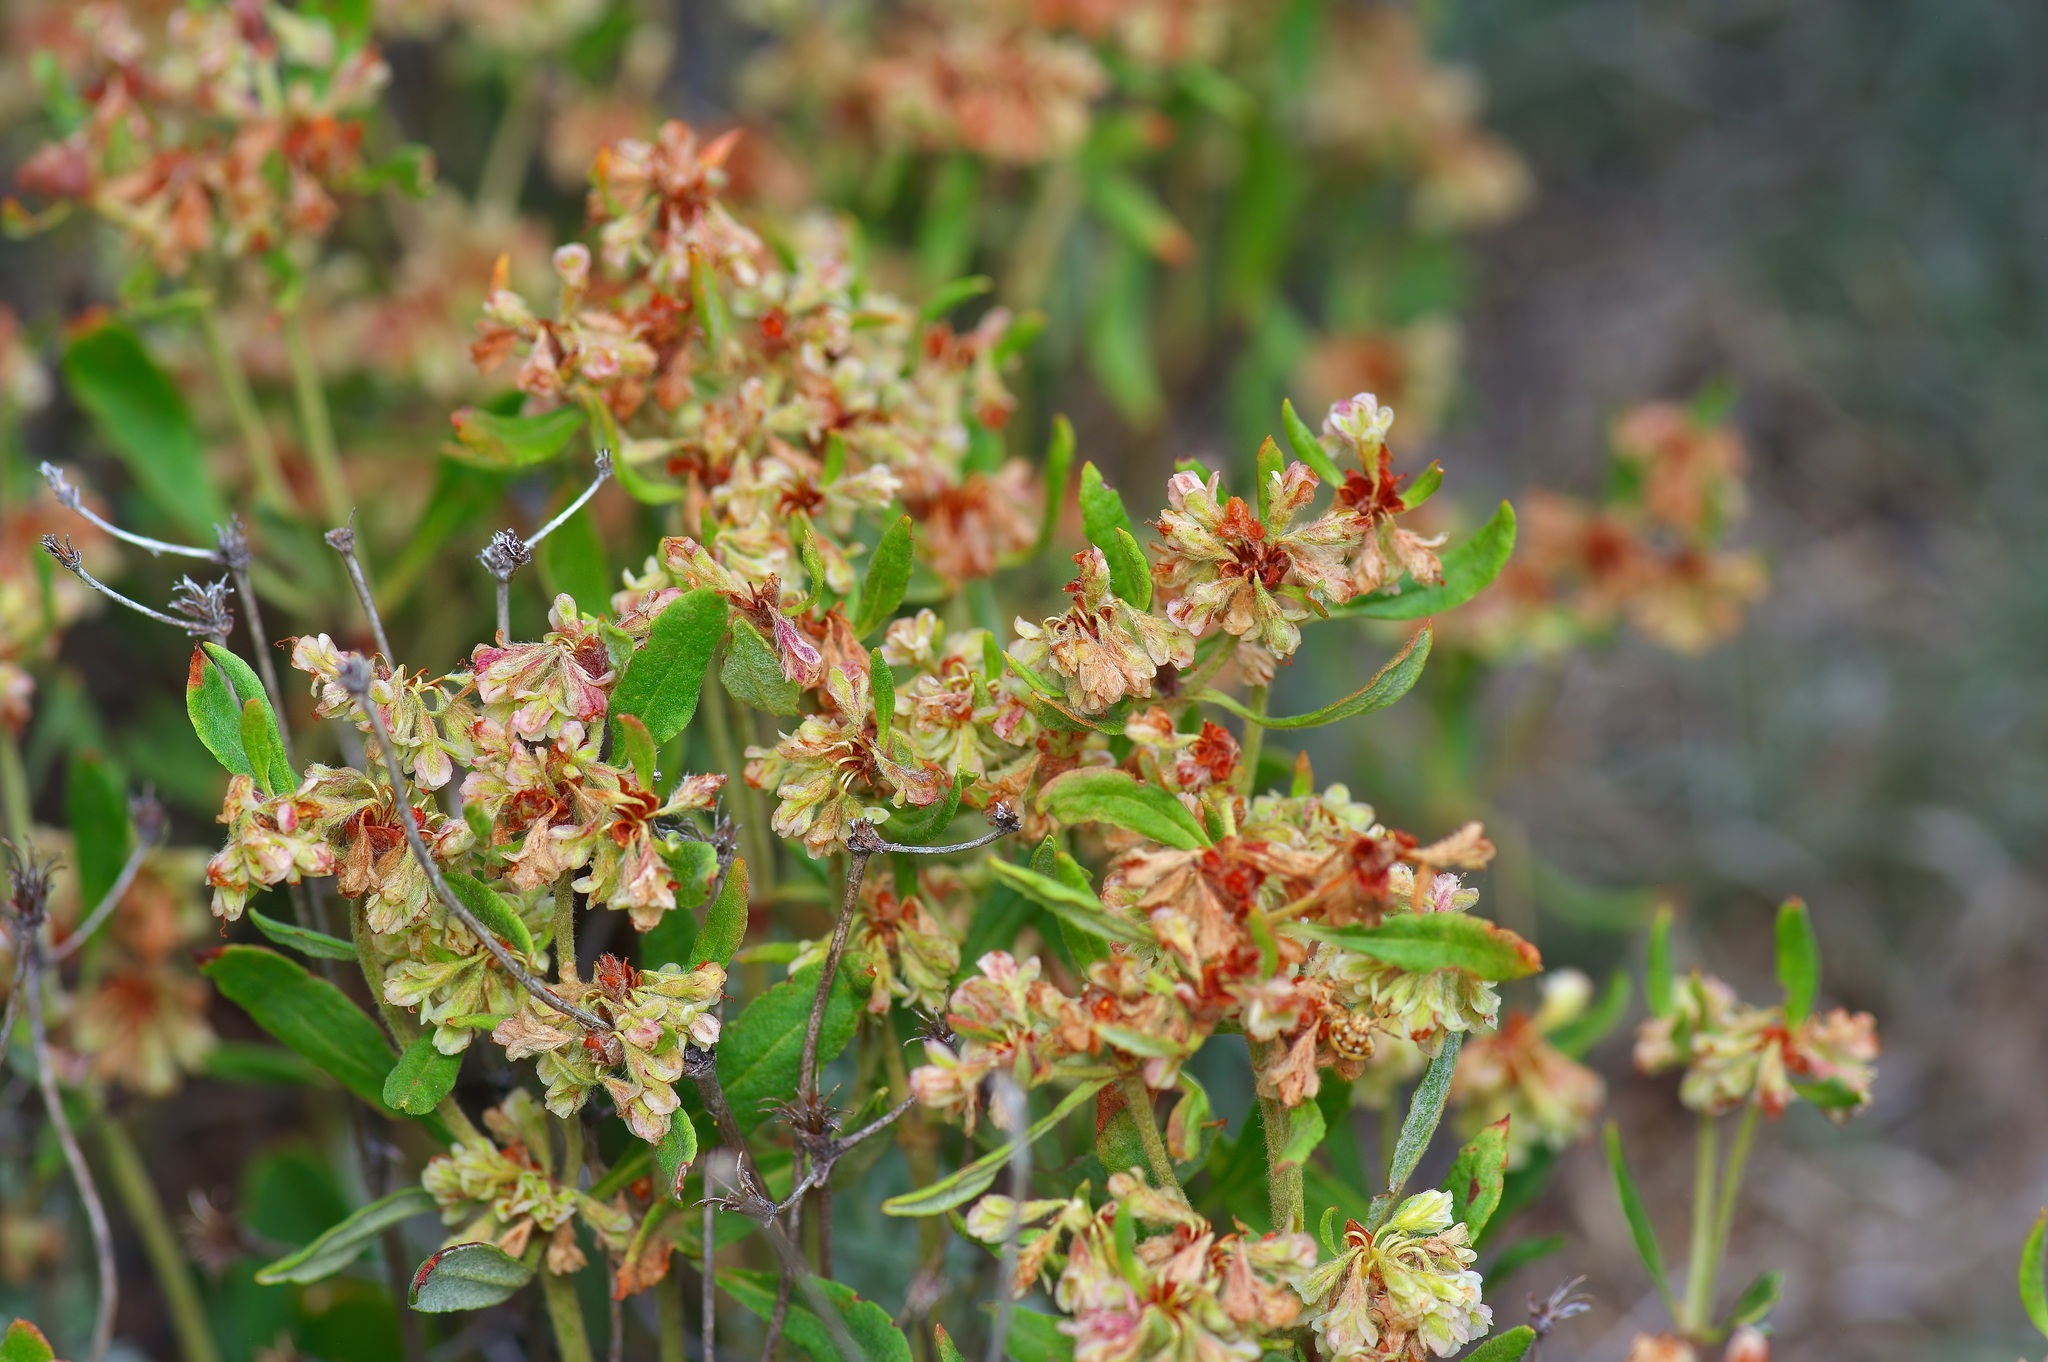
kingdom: Plantae
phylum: Tracheophyta
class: Magnoliopsida
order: Caryophyllales
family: Polygonaceae
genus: Eriogonum
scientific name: Eriogonum jamesii
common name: Antelope-sage
